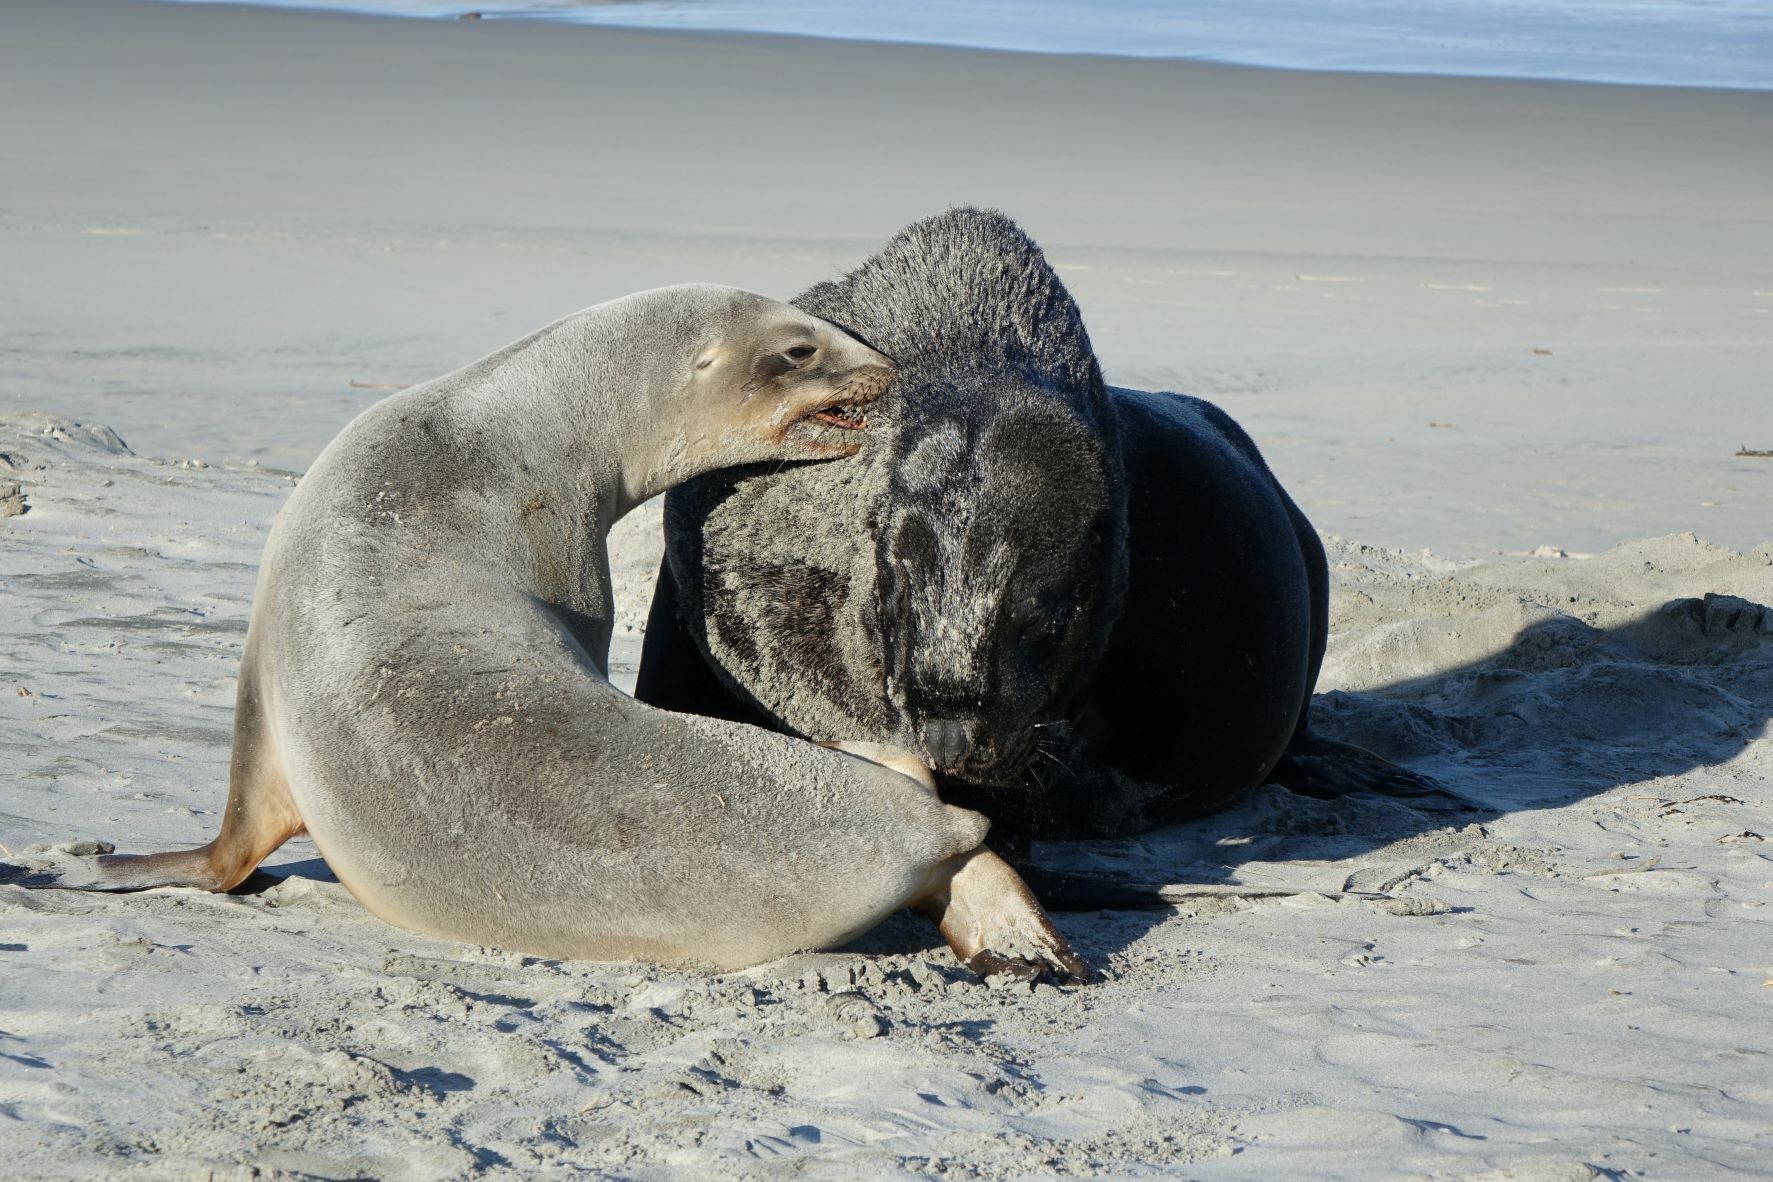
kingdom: Animalia
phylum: Chordata
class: Mammalia
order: Carnivora
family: Otariidae
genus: Phocarctos
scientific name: Phocarctos hookeri
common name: New zealand sea lion
